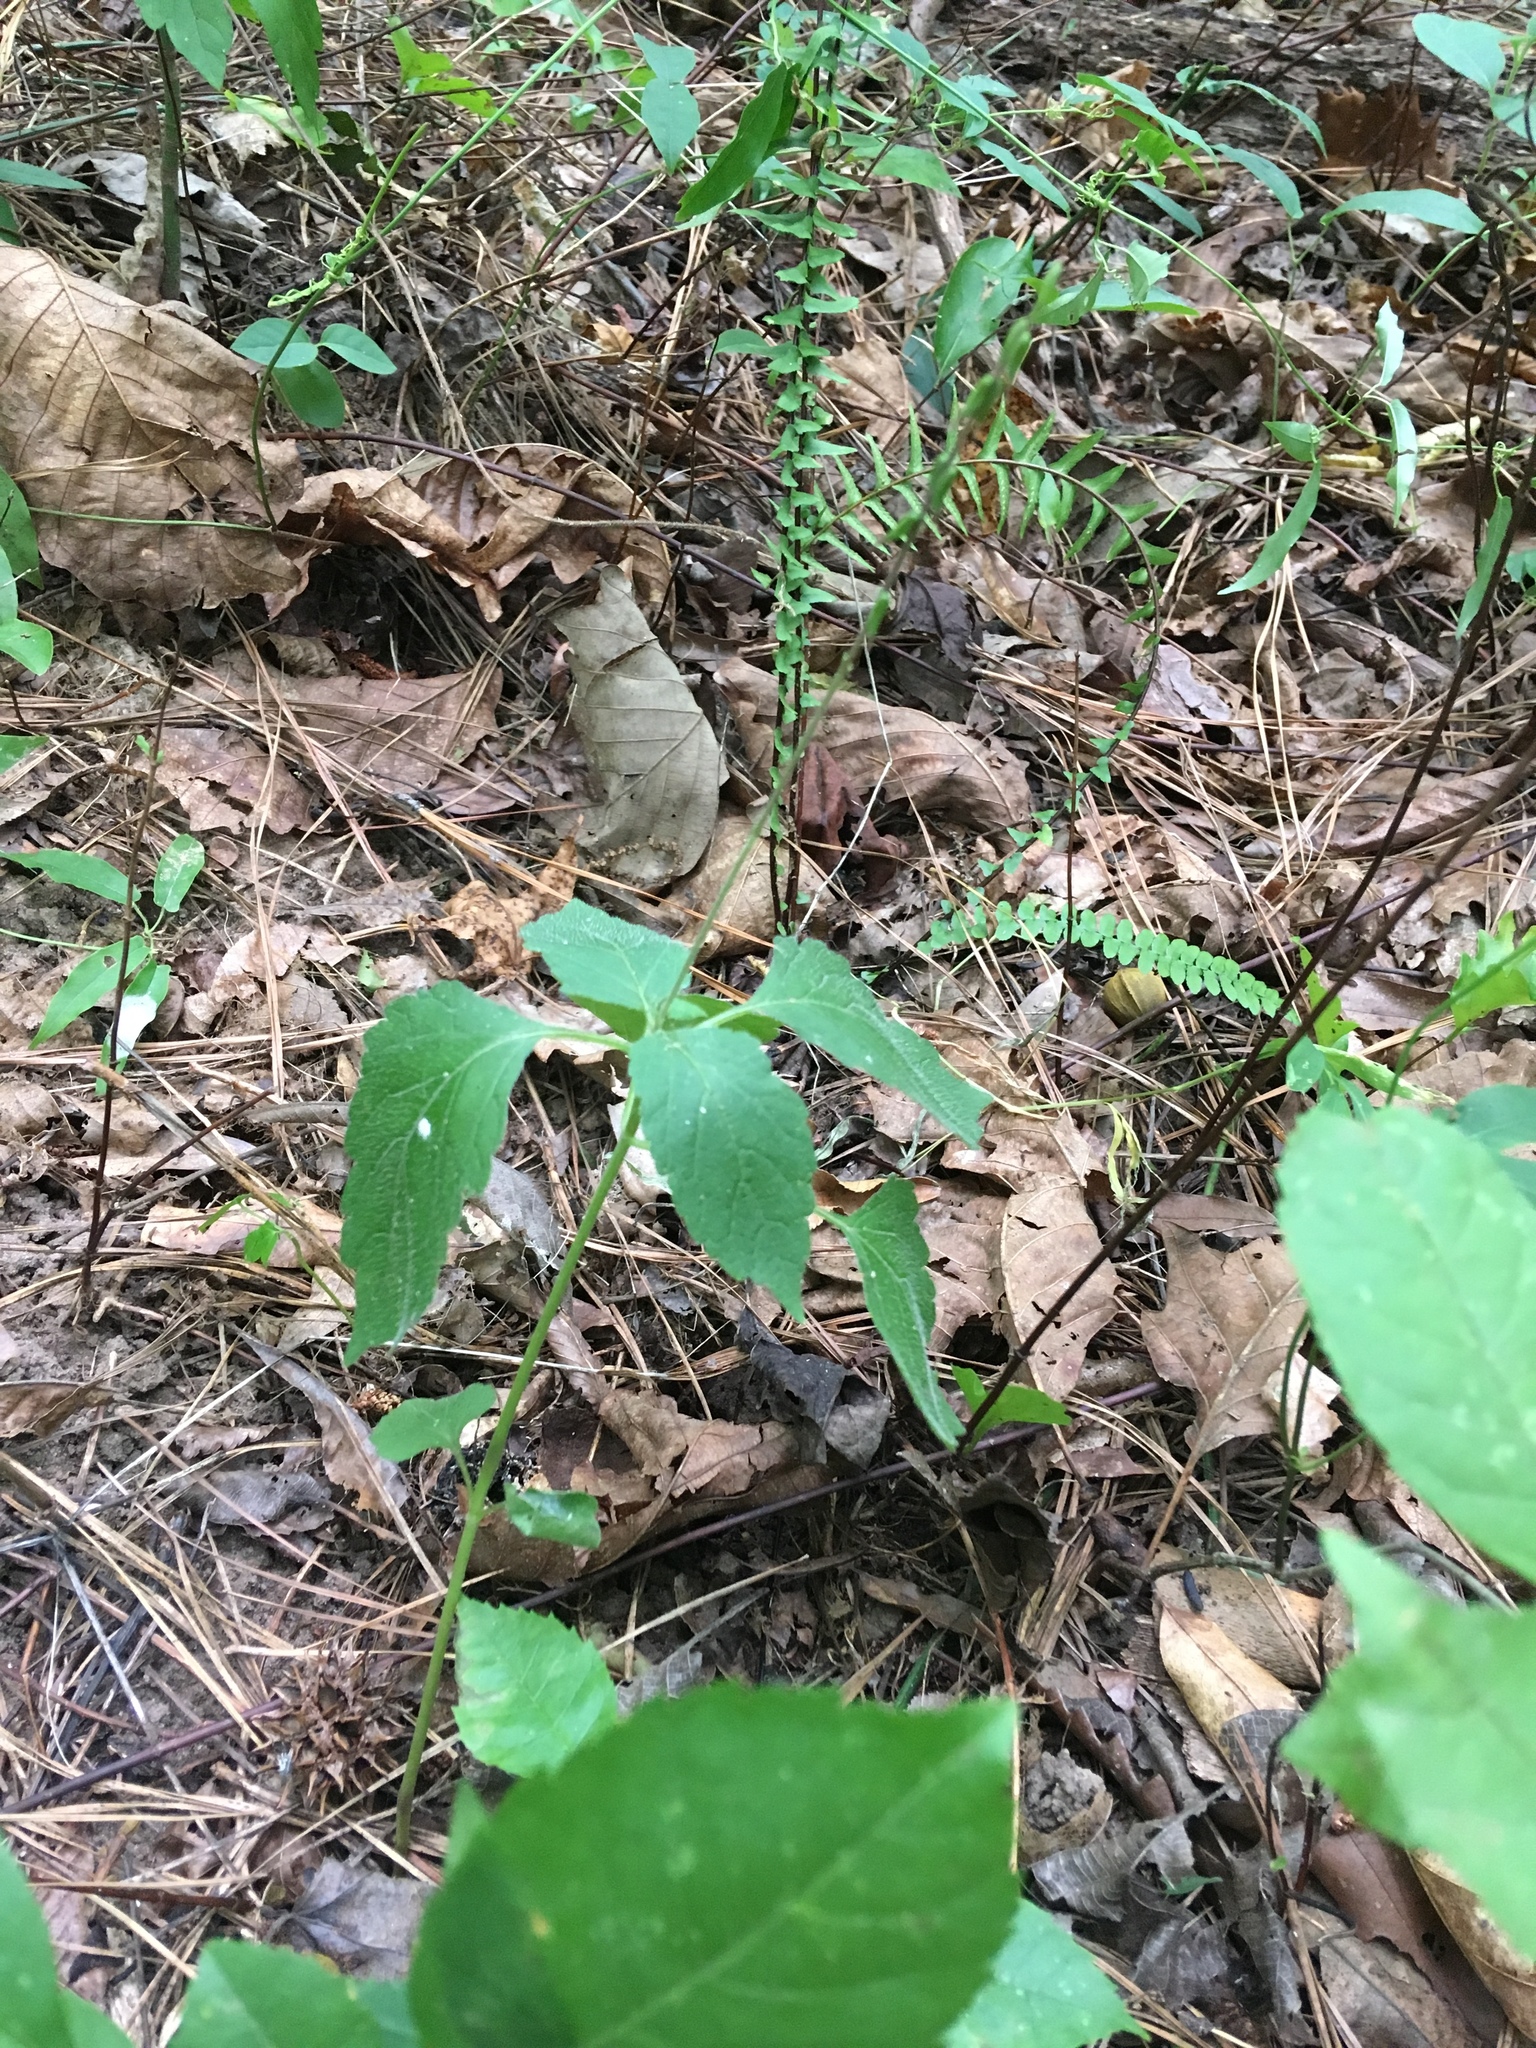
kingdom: Plantae
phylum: Tracheophyta
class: Magnoliopsida
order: Lamiales
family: Phrymaceae
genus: Phryma
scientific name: Phryma leptostachya
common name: American lopseed
